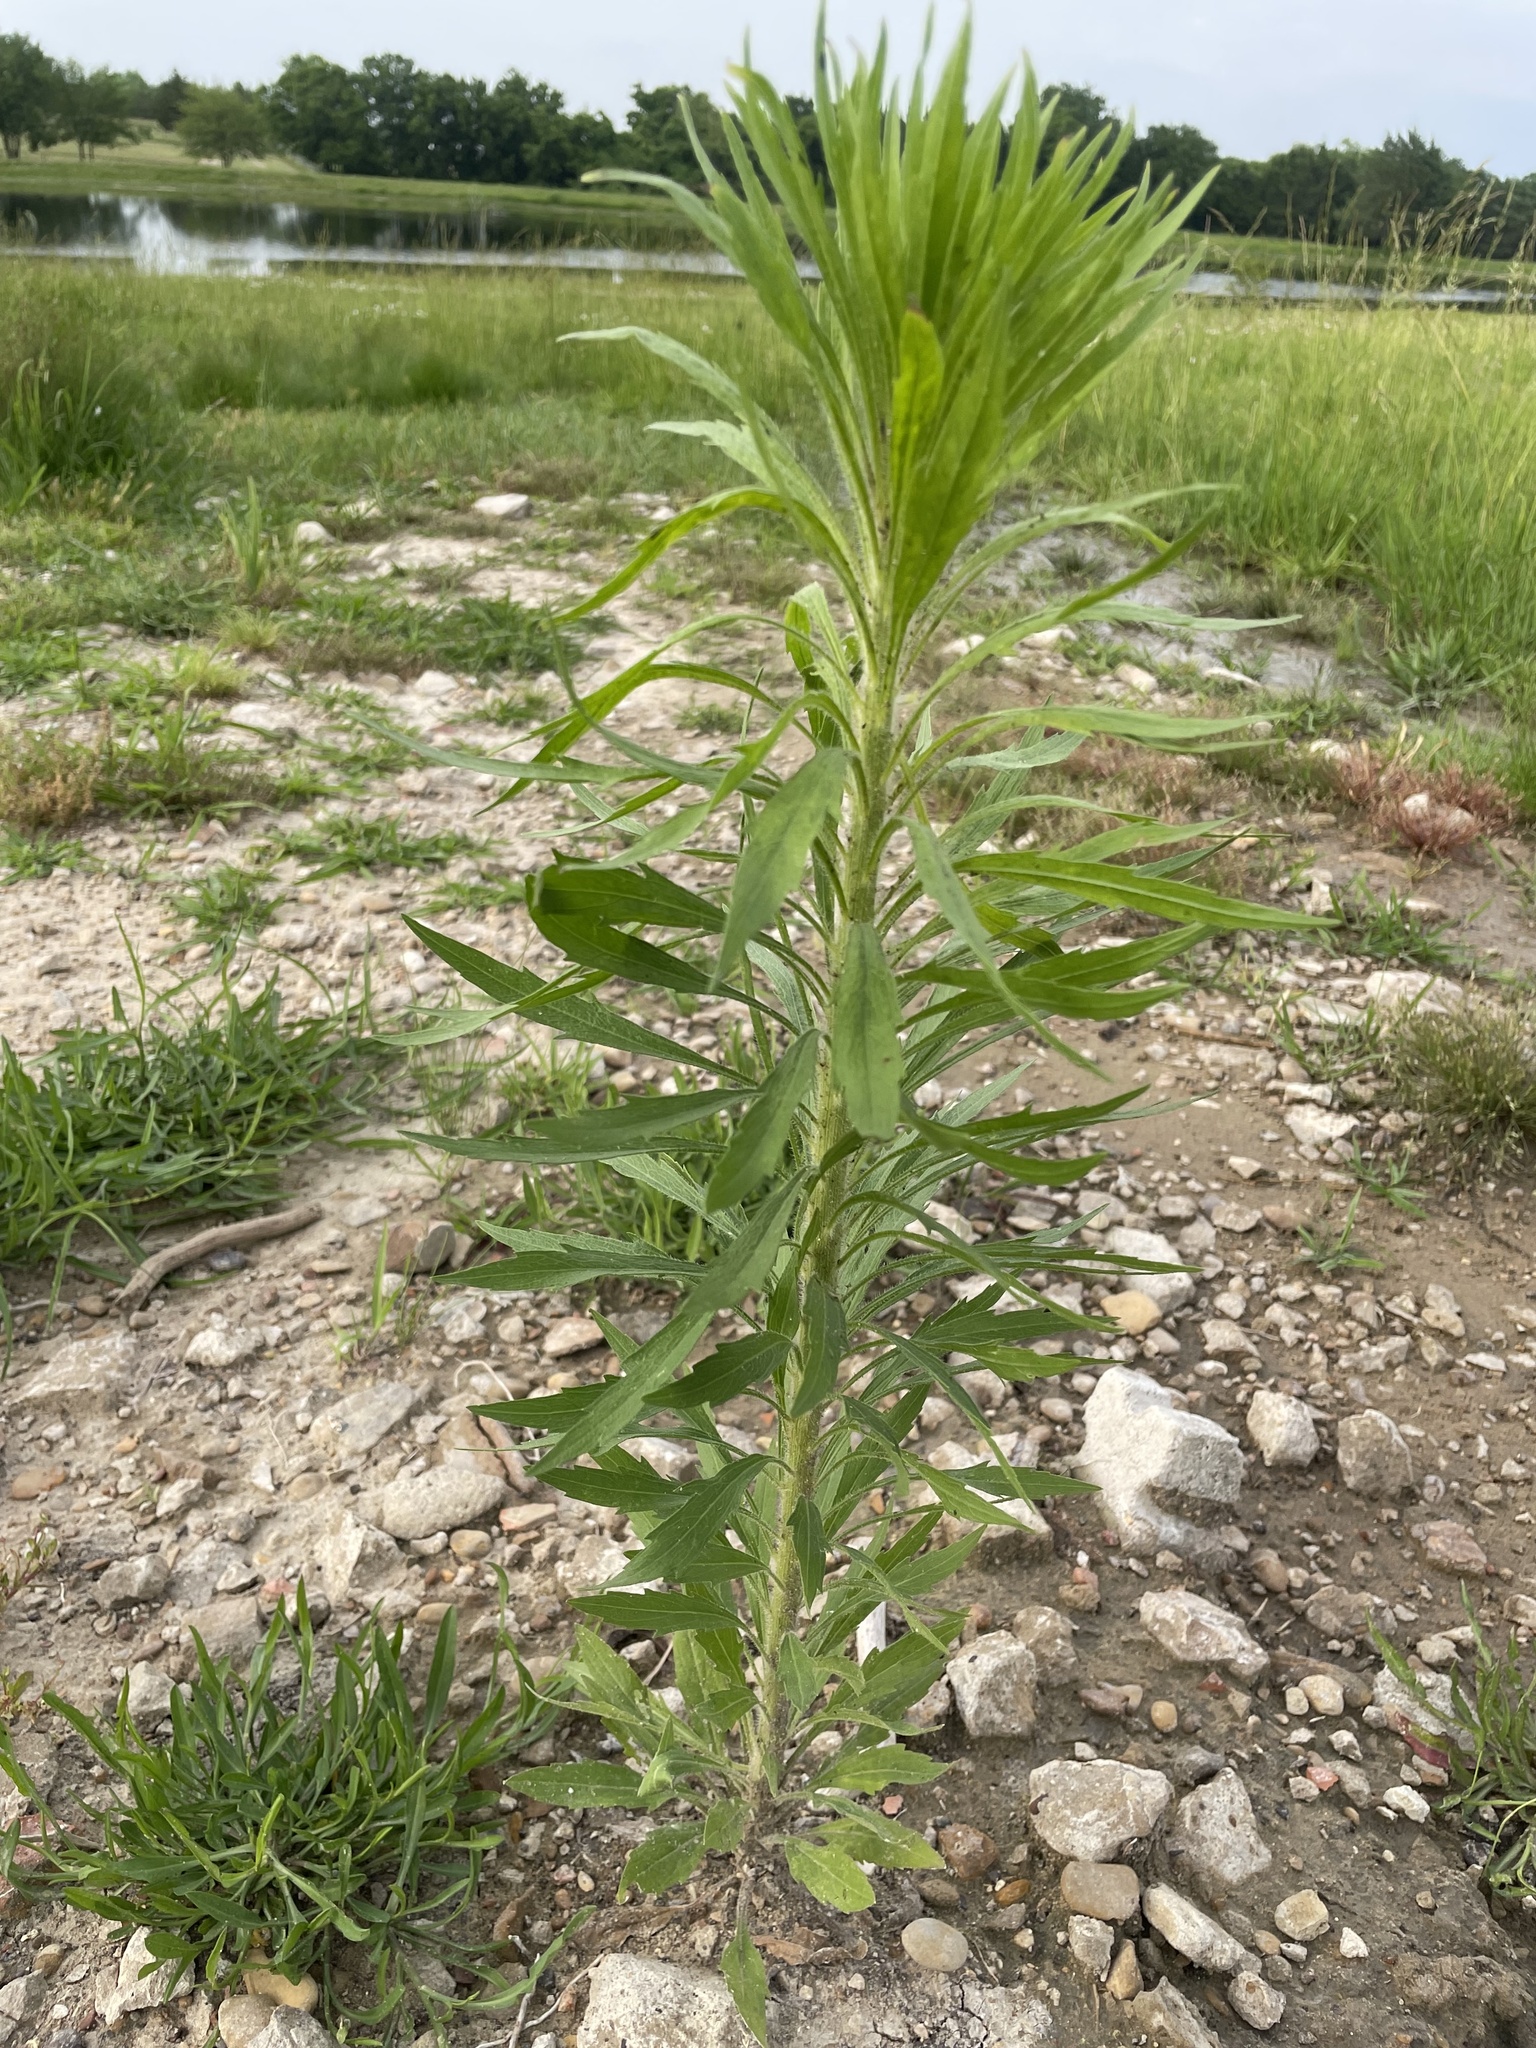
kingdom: Plantae
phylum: Tracheophyta
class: Magnoliopsida
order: Asterales
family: Asteraceae
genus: Erigeron
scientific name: Erigeron canadensis
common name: Canadian fleabane
